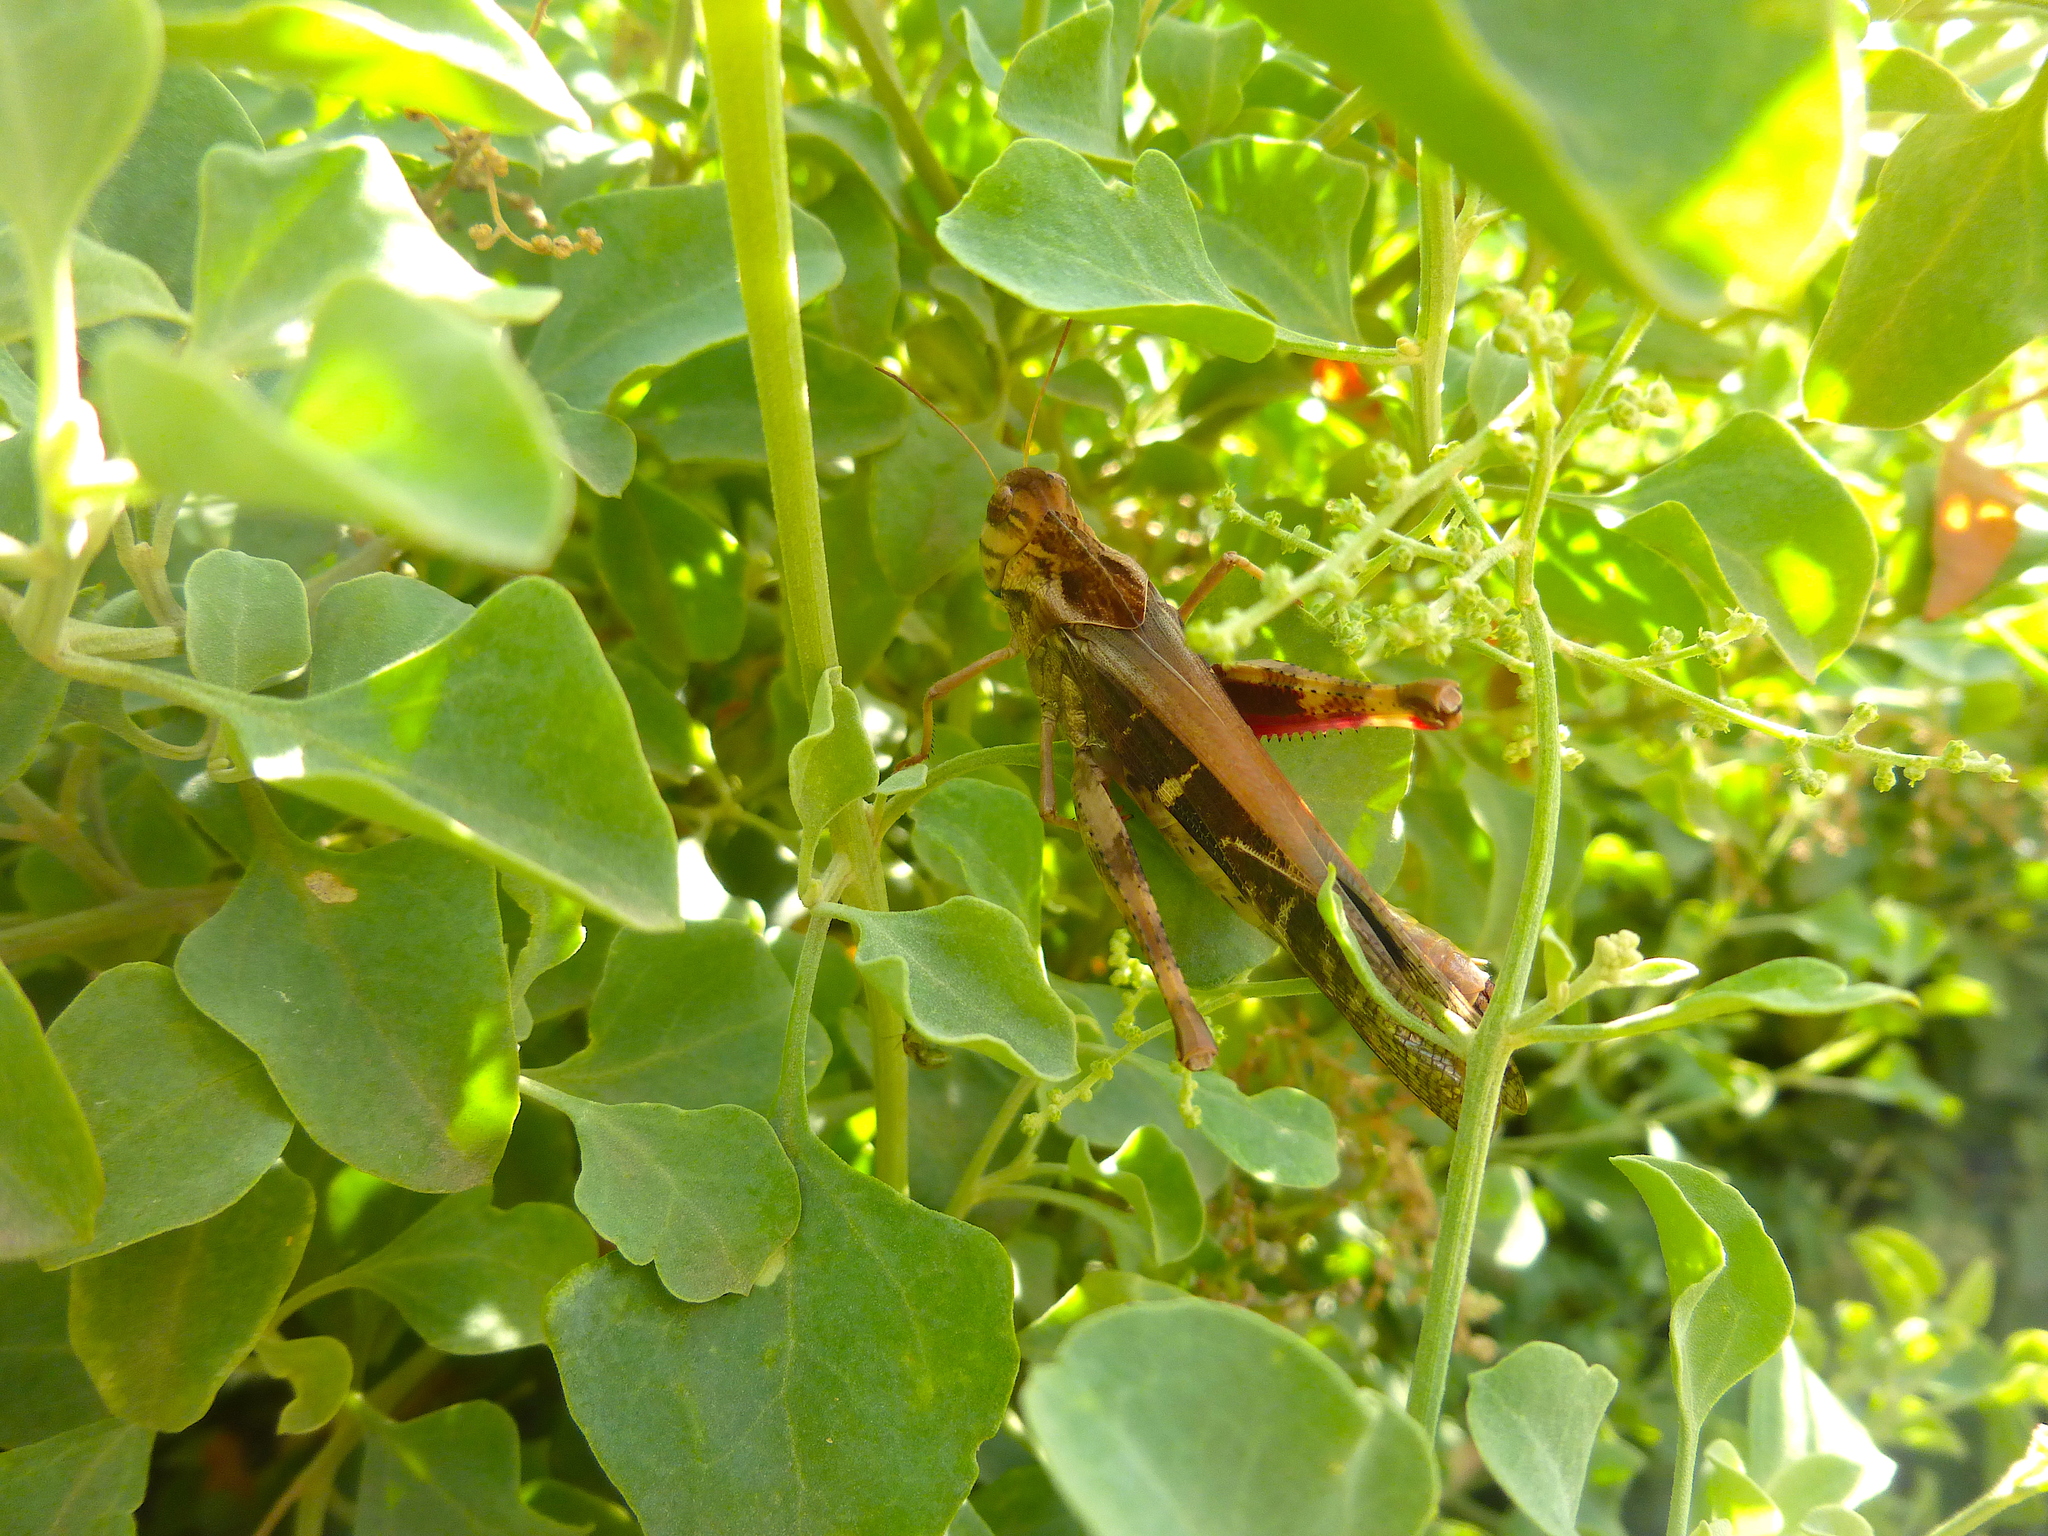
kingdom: Animalia
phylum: Arthropoda
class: Insecta
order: Orthoptera
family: Acrididae
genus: Gastrimargus
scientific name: Gastrimargus musicus
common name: Yellow-winged locust
